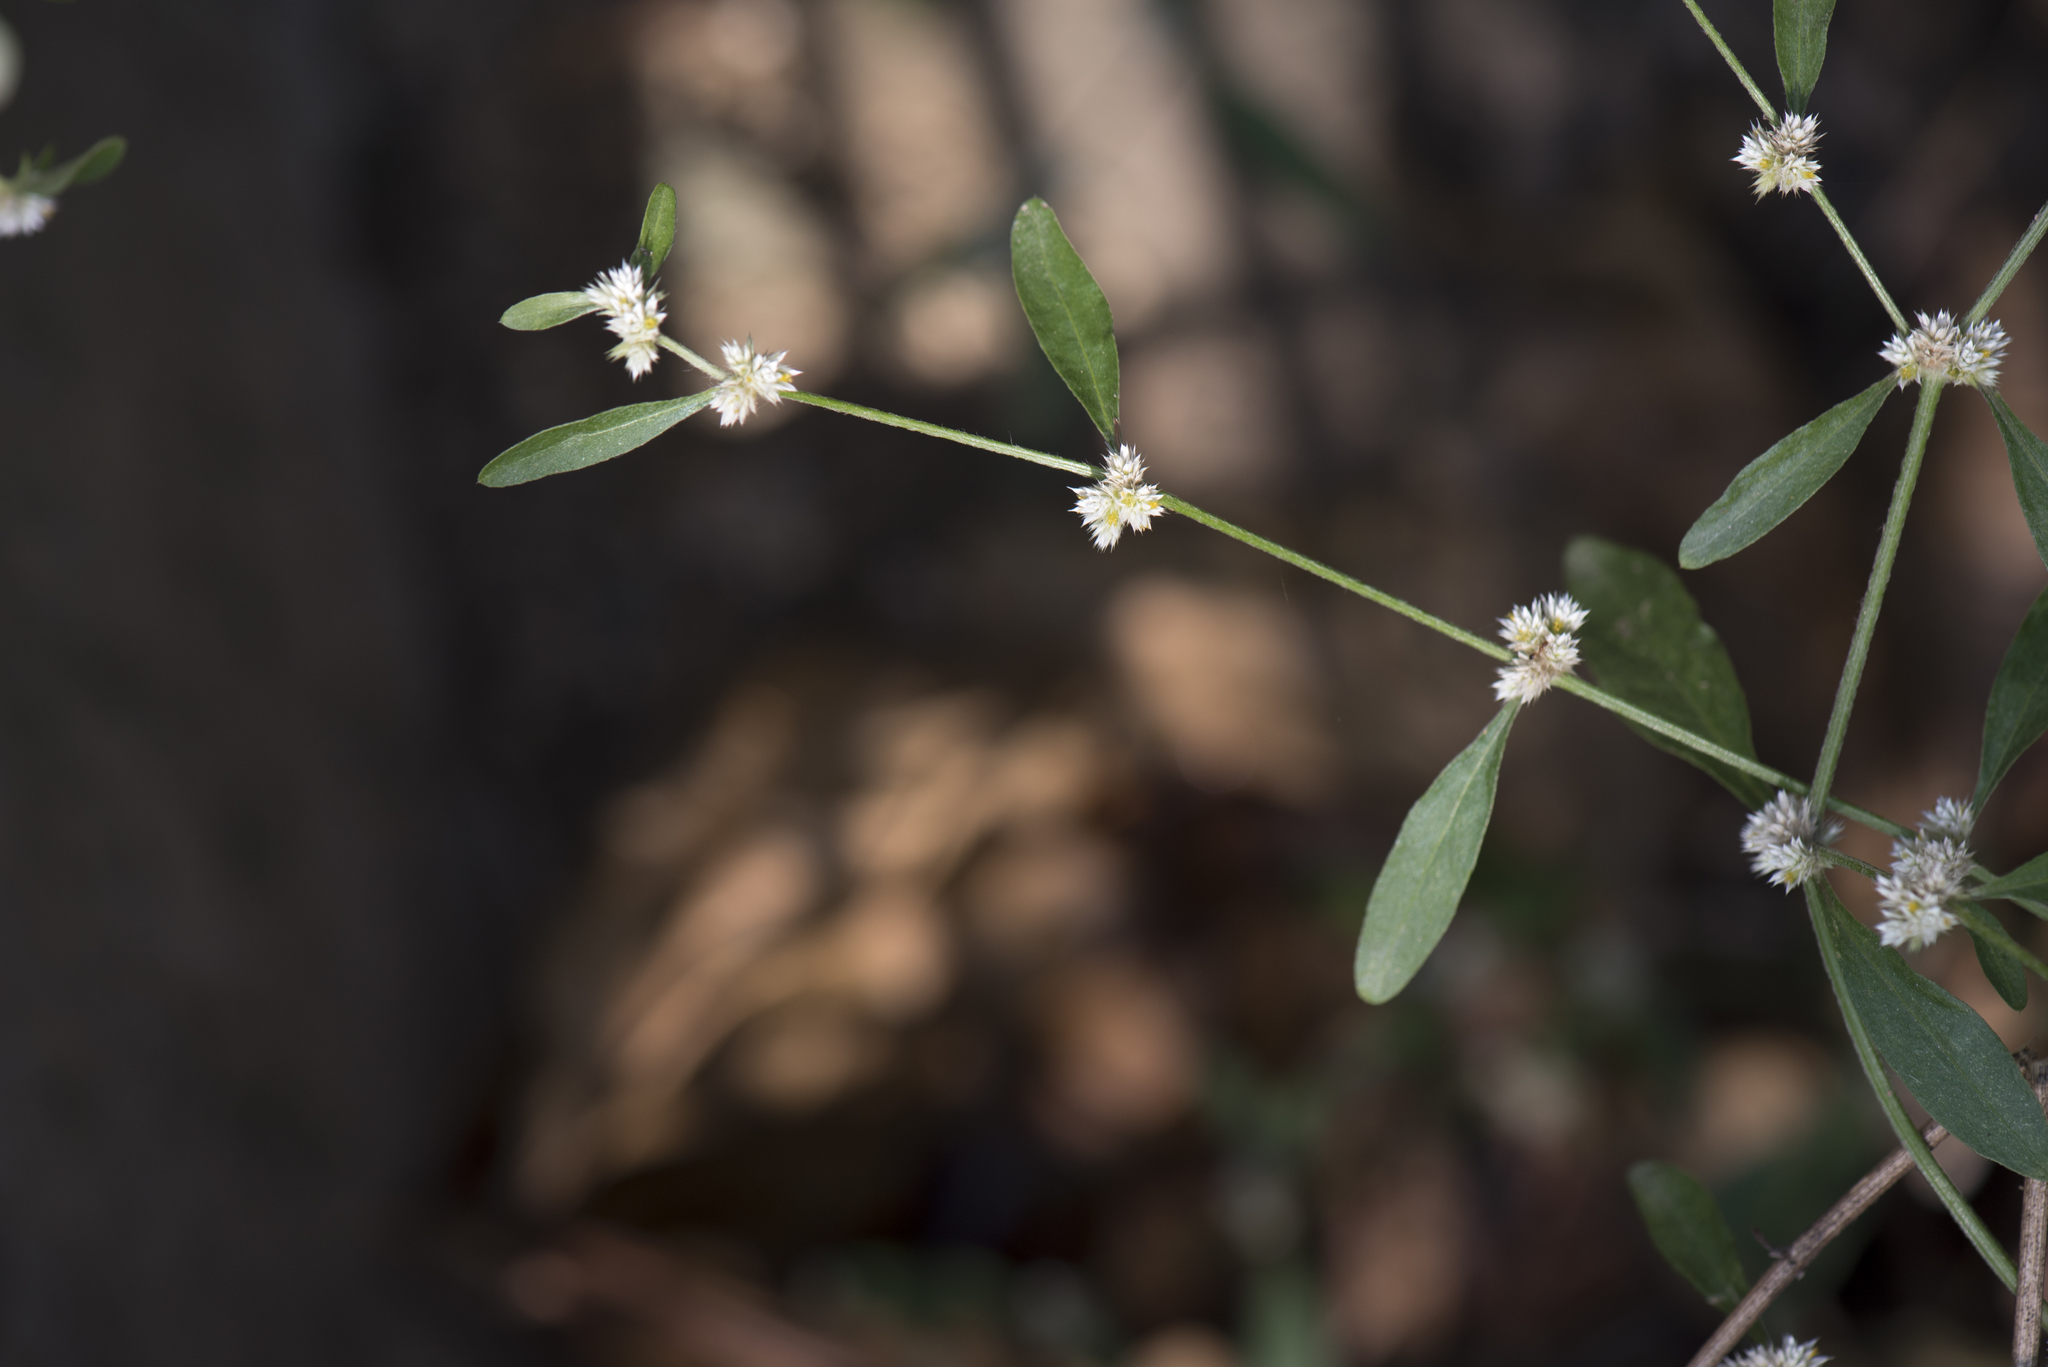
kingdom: Plantae
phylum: Tracheophyta
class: Magnoliopsida
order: Caryophyllales
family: Amaranthaceae
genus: Alternanthera
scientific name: Alternanthera bettzickiana
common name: Calico-plant
